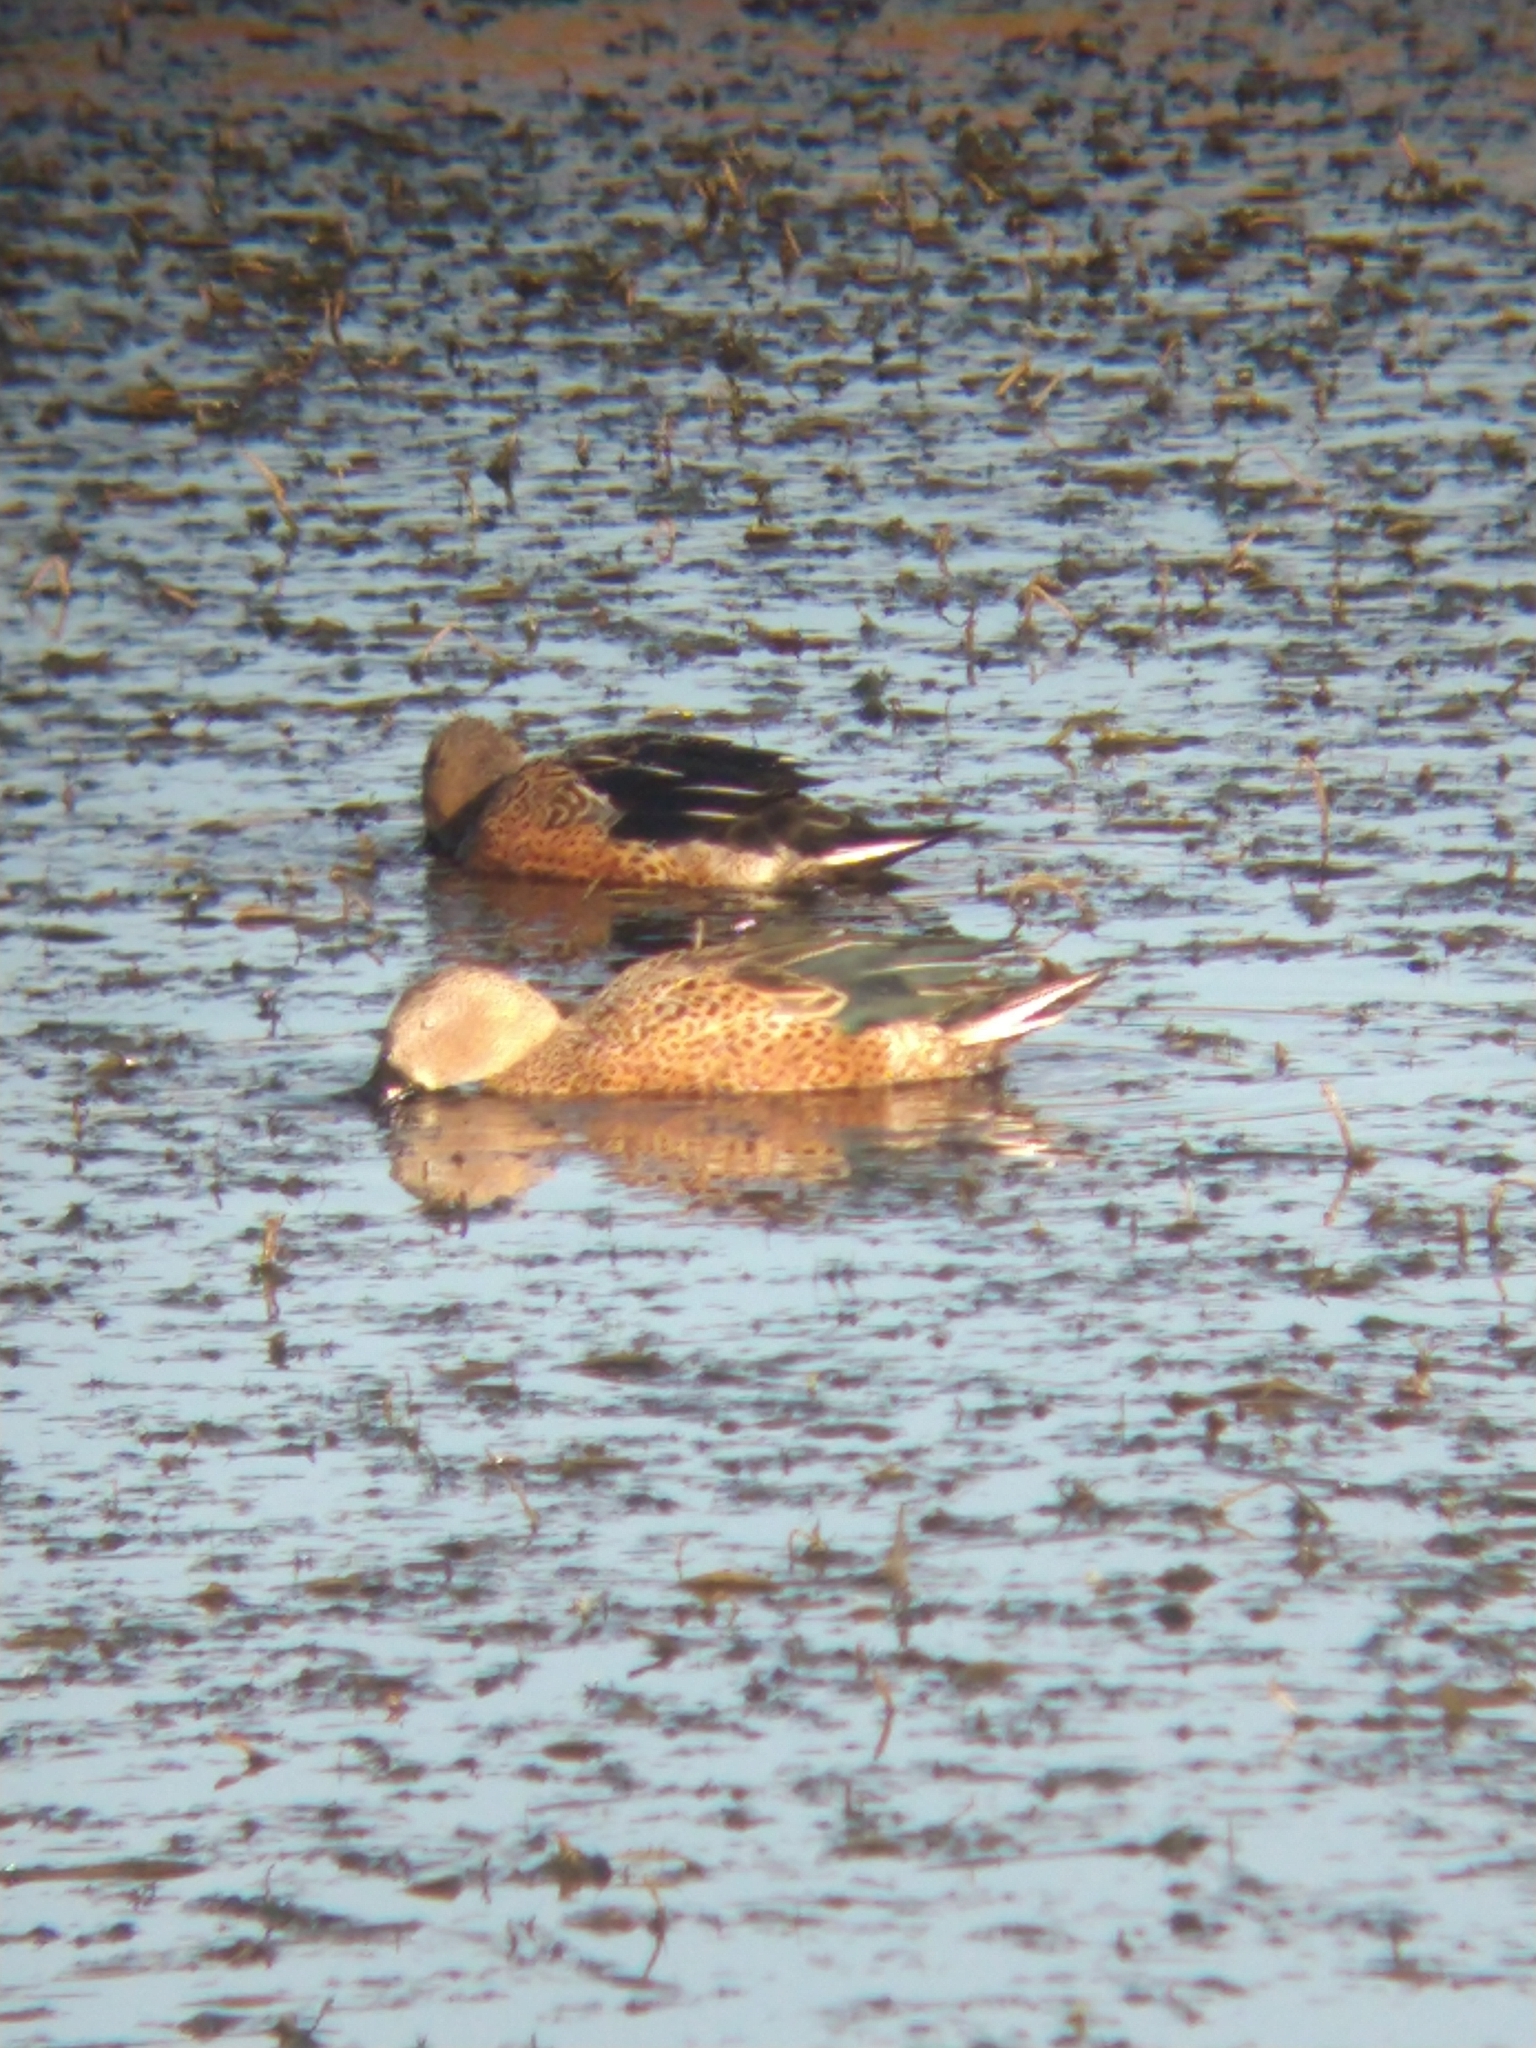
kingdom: Animalia
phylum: Chordata
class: Aves
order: Anseriformes
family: Anatidae
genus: Spatula
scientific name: Spatula platalea
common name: Red shoveler
